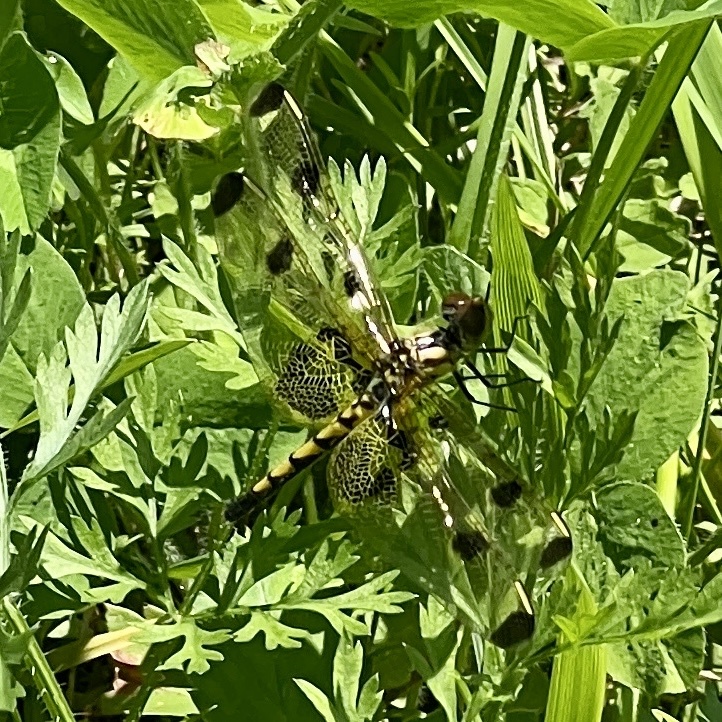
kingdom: Animalia
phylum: Arthropoda
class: Insecta
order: Odonata
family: Libellulidae
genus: Celithemis
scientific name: Celithemis elisa
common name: Calico pennant
